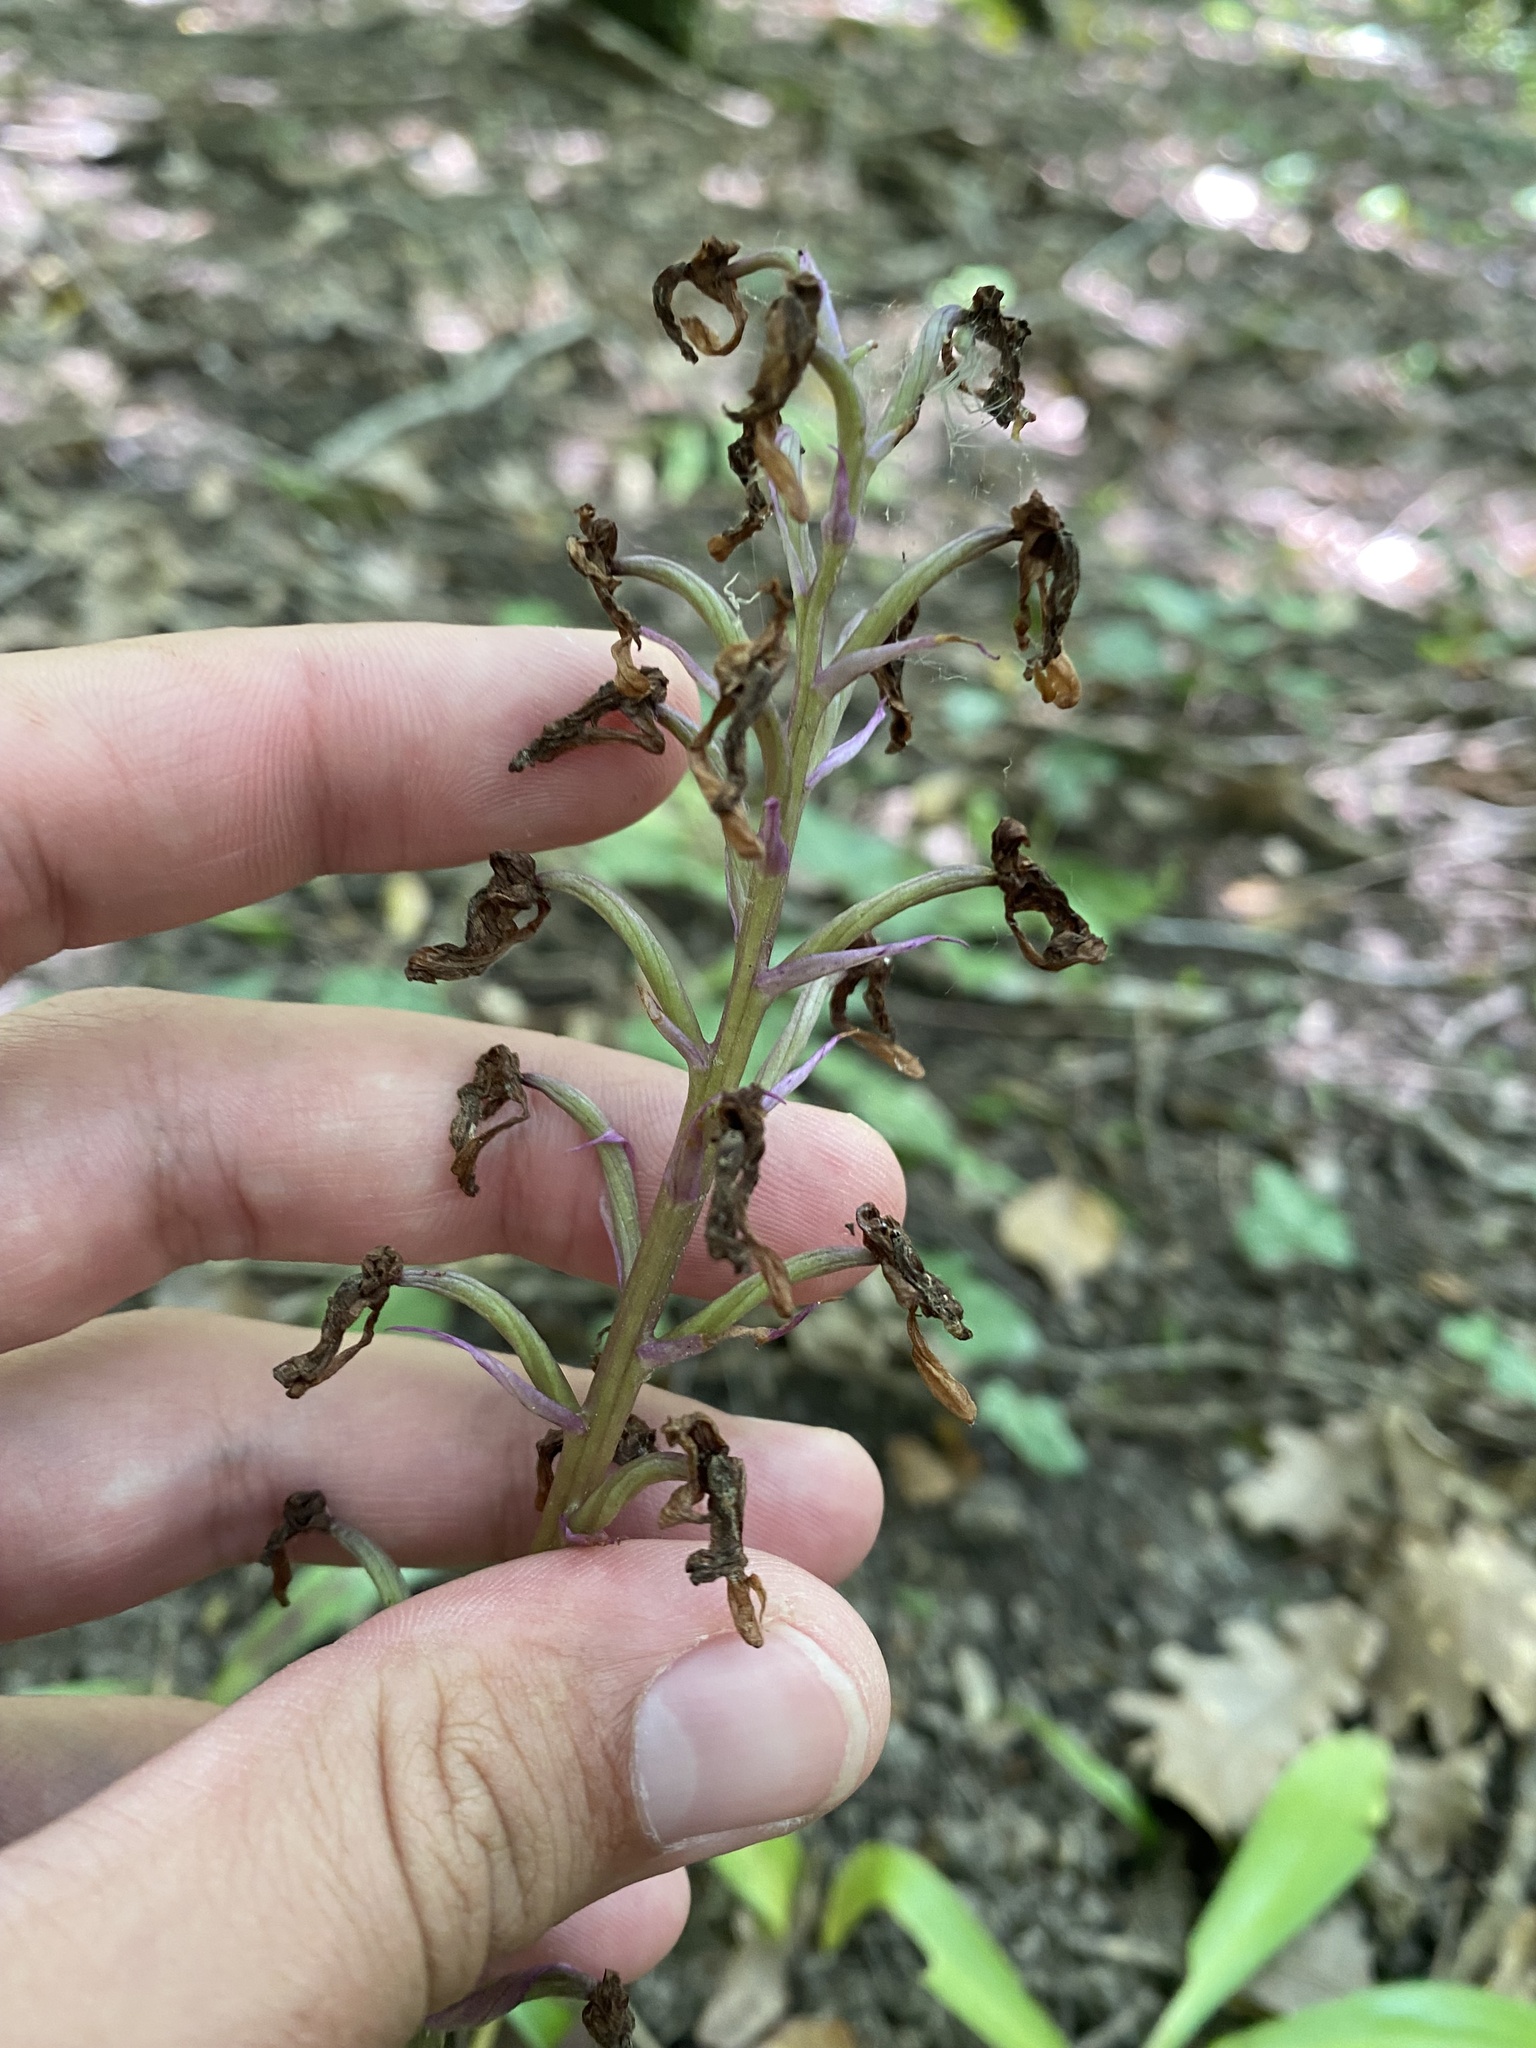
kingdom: Plantae
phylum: Tracheophyta
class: Liliopsida
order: Asparagales
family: Orchidaceae
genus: Orchis
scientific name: Orchis mascula
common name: Early-purple orchid
